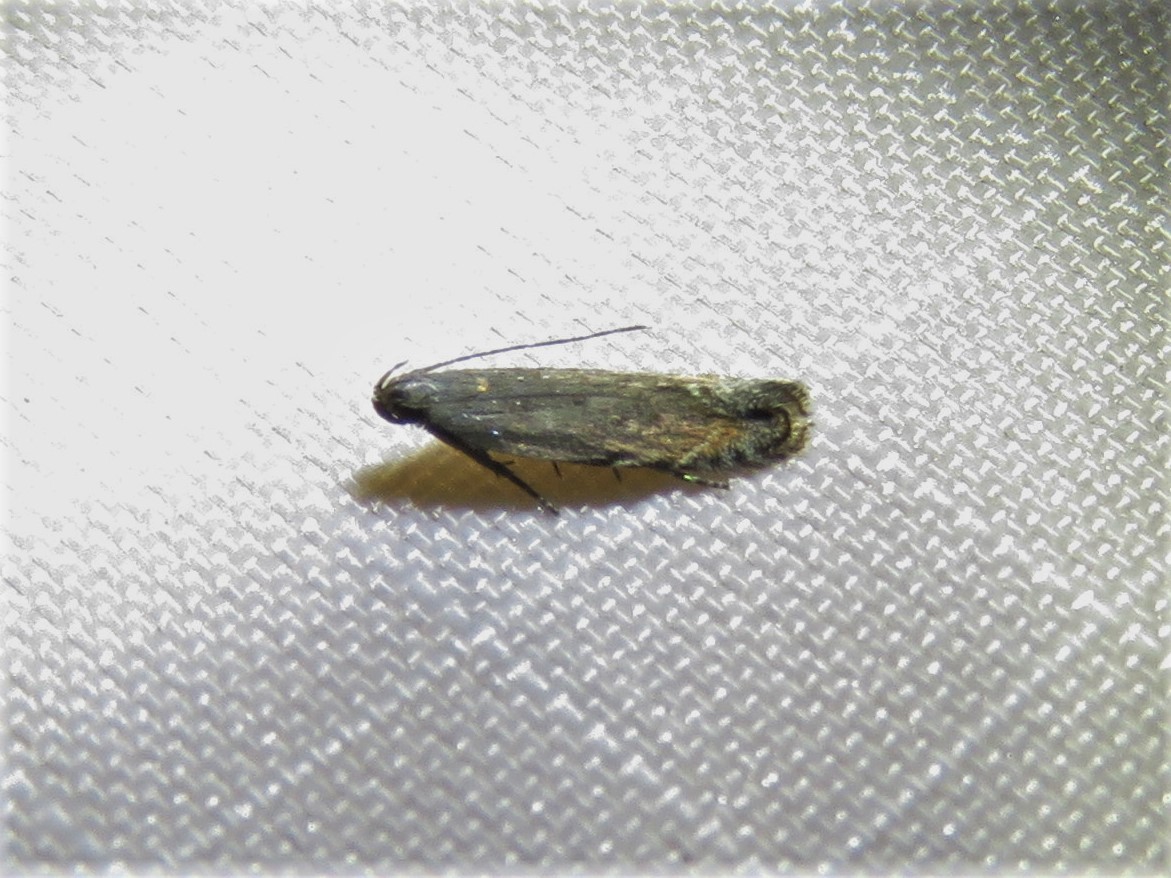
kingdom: Animalia
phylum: Arthropoda
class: Insecta
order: Lepidoptera
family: Gelechiidae
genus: Battaristis
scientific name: Battaristis concinnusella
